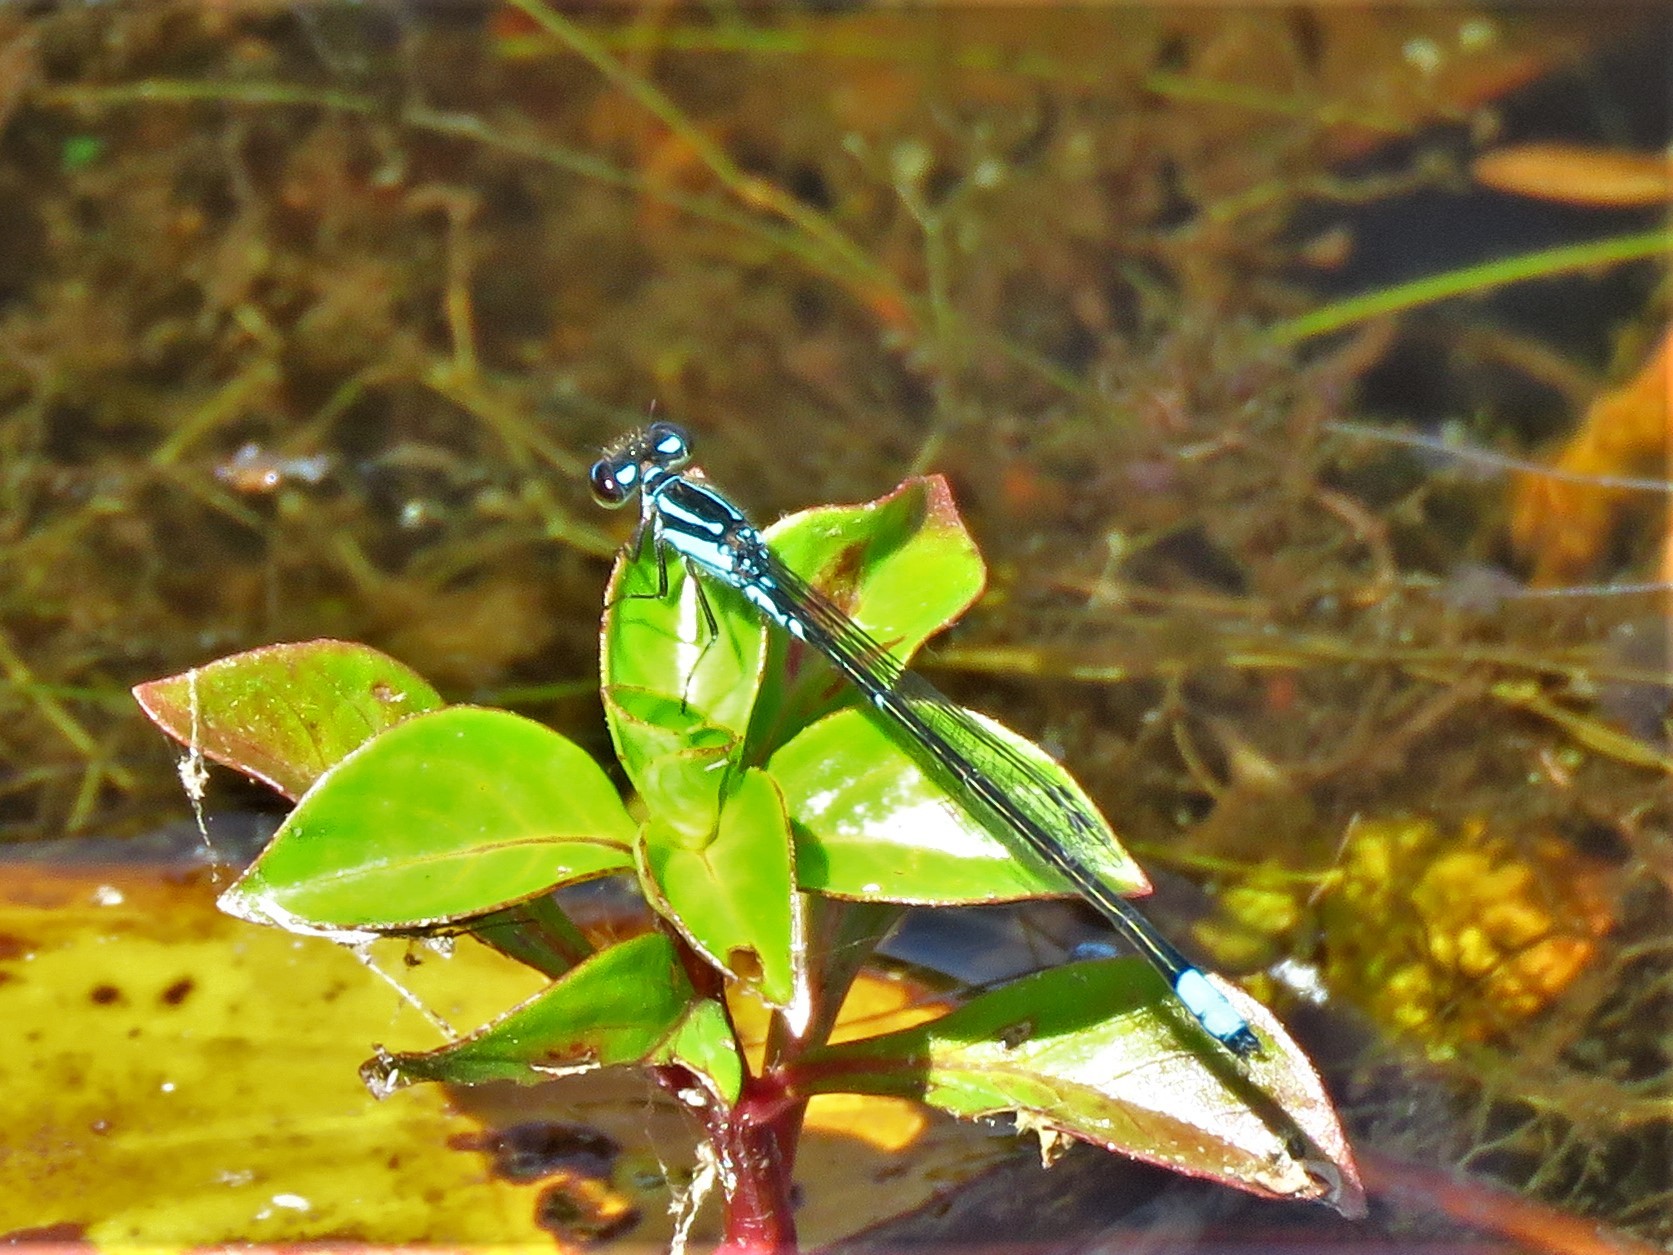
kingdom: Animalia
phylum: Arthropoda
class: Insecta
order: Odonata
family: Coenagrionidae
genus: Enallagma
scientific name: Enallagma geminatum
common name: Skimming bluet
